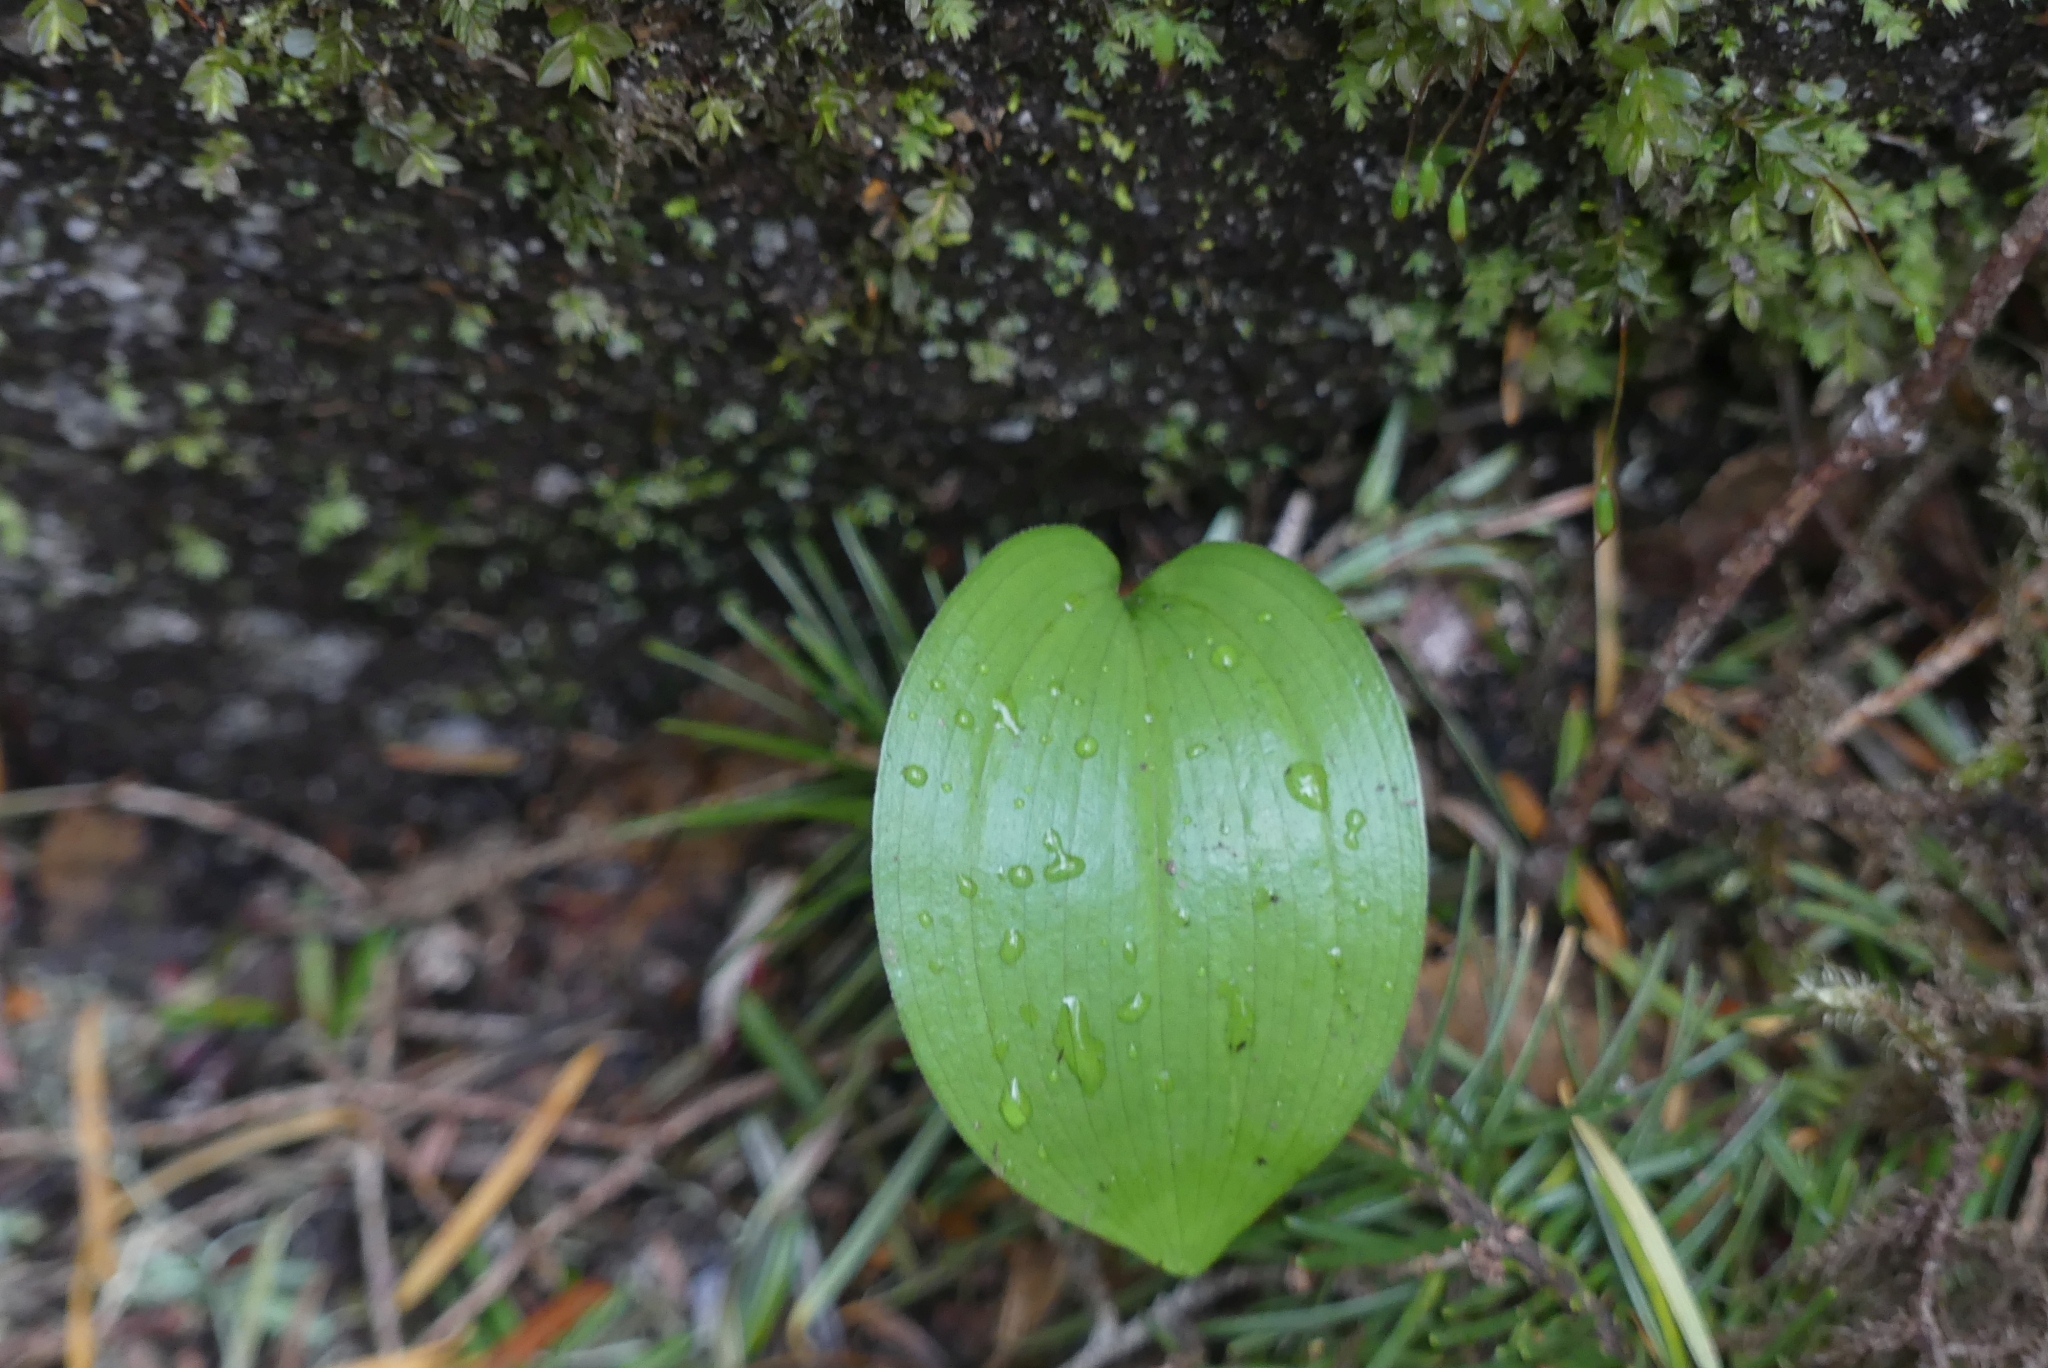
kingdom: Plantae
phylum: Tracheophyta
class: Liliopsida
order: Asparagales
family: Asparagaceae
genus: Maianthemum
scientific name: Maianthemum racemosum
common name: False spikenard
